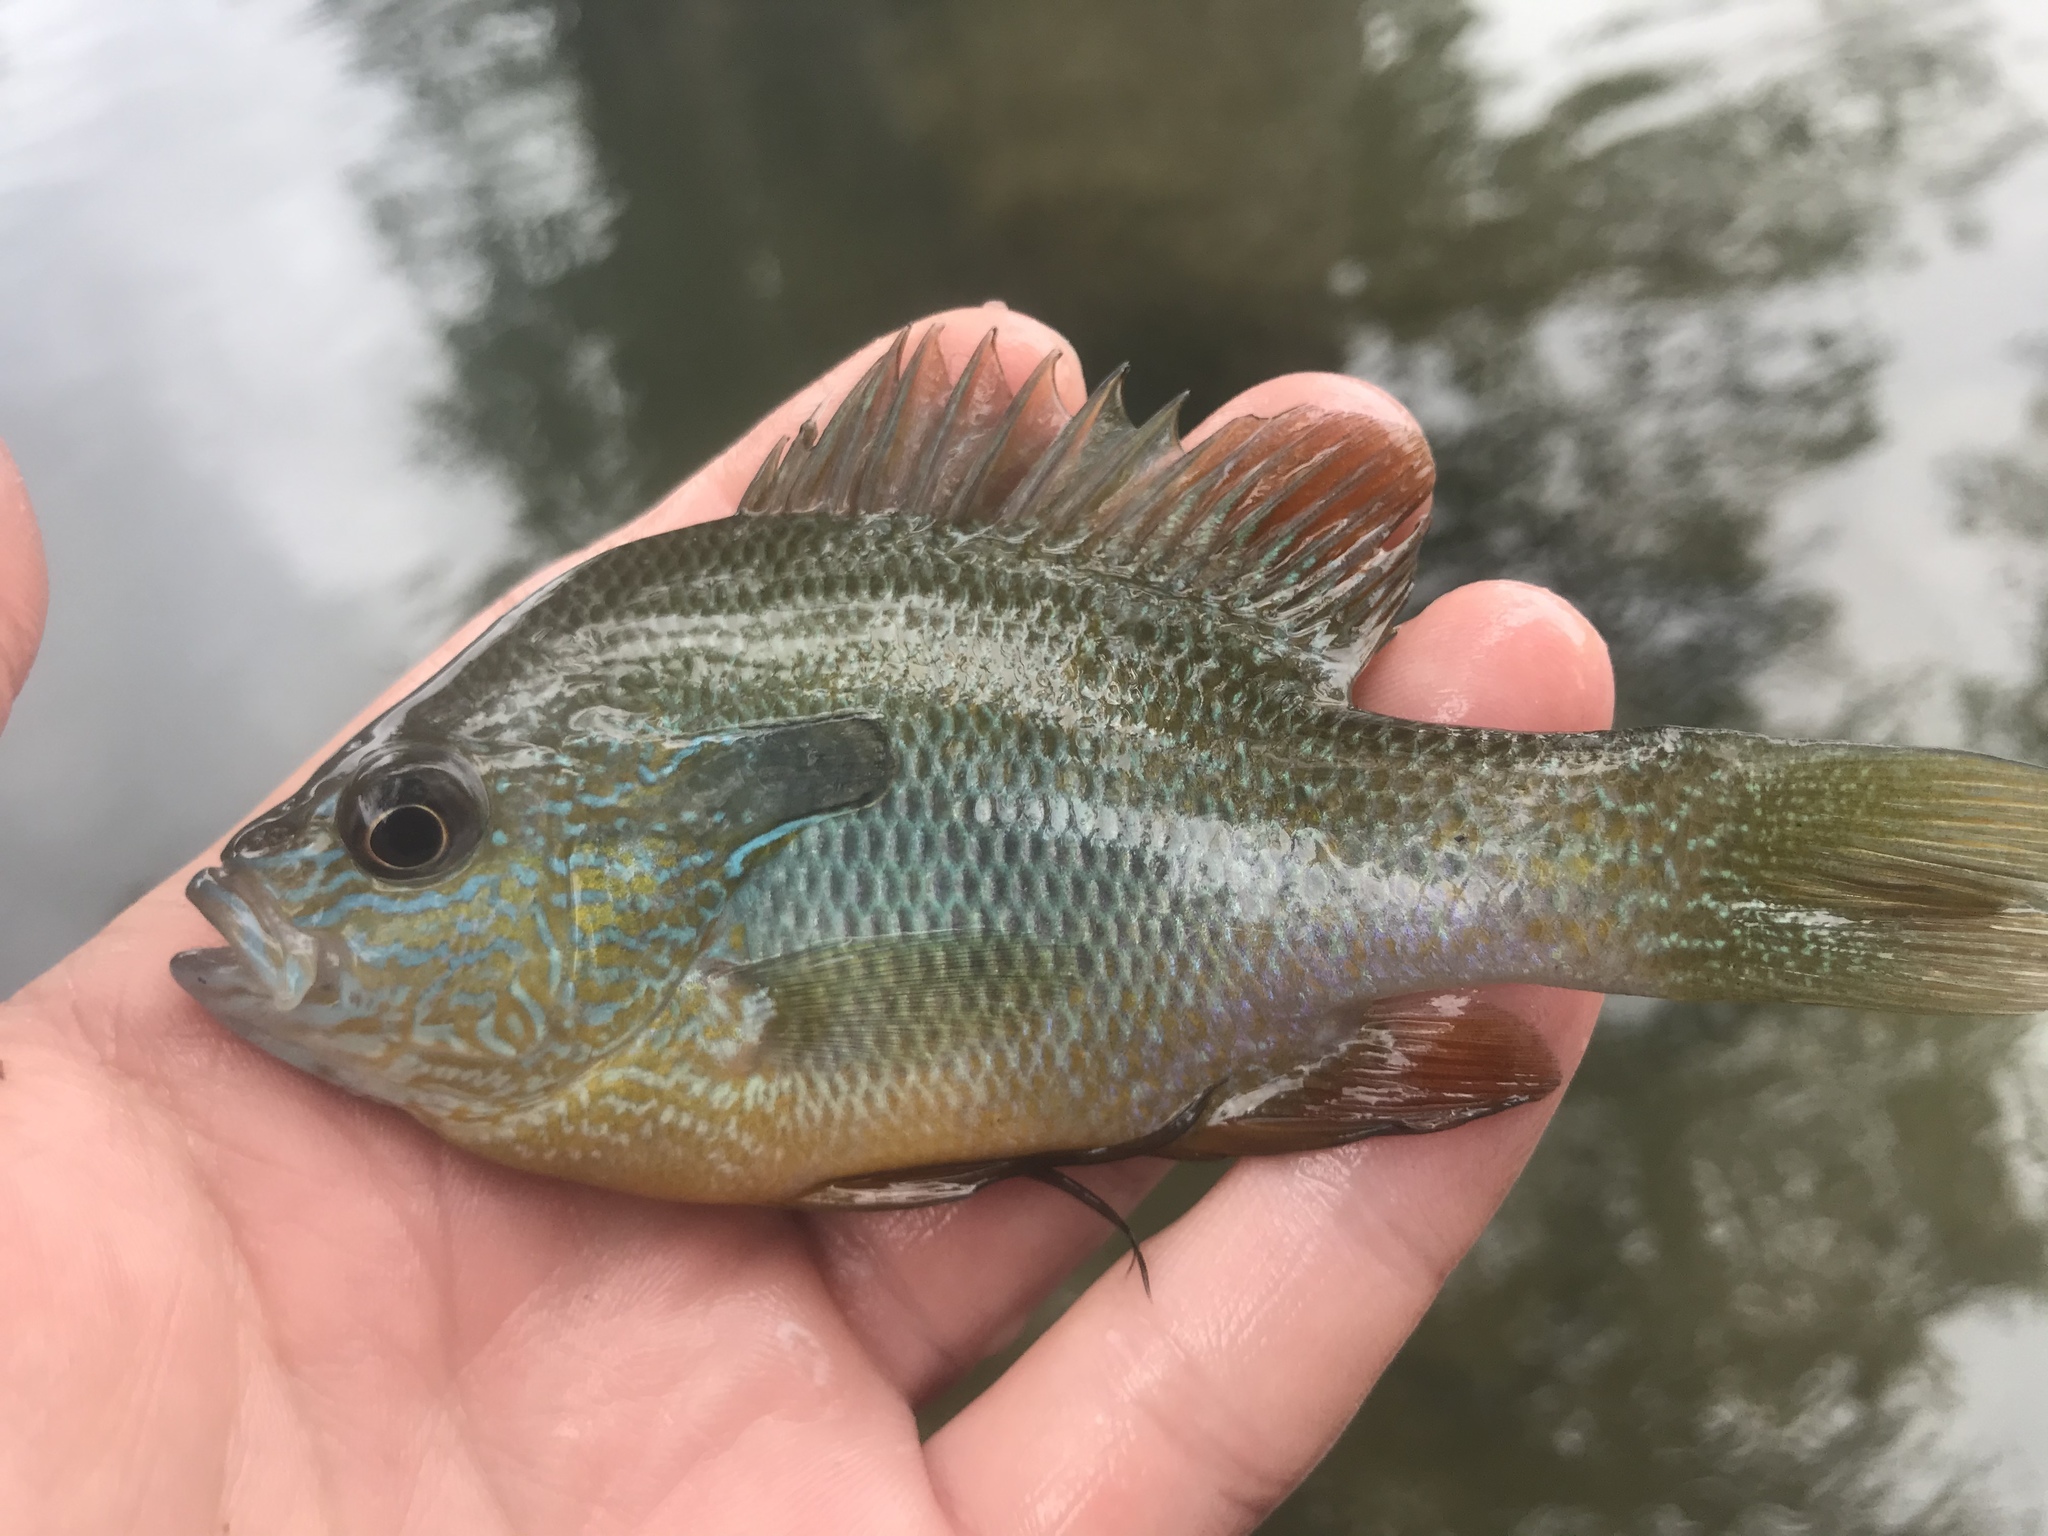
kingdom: Animalia
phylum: Chordata
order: Perciformes
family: Centrarchidae
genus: Lepomis
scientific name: Lepomis megalotis
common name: Longear sunfish
